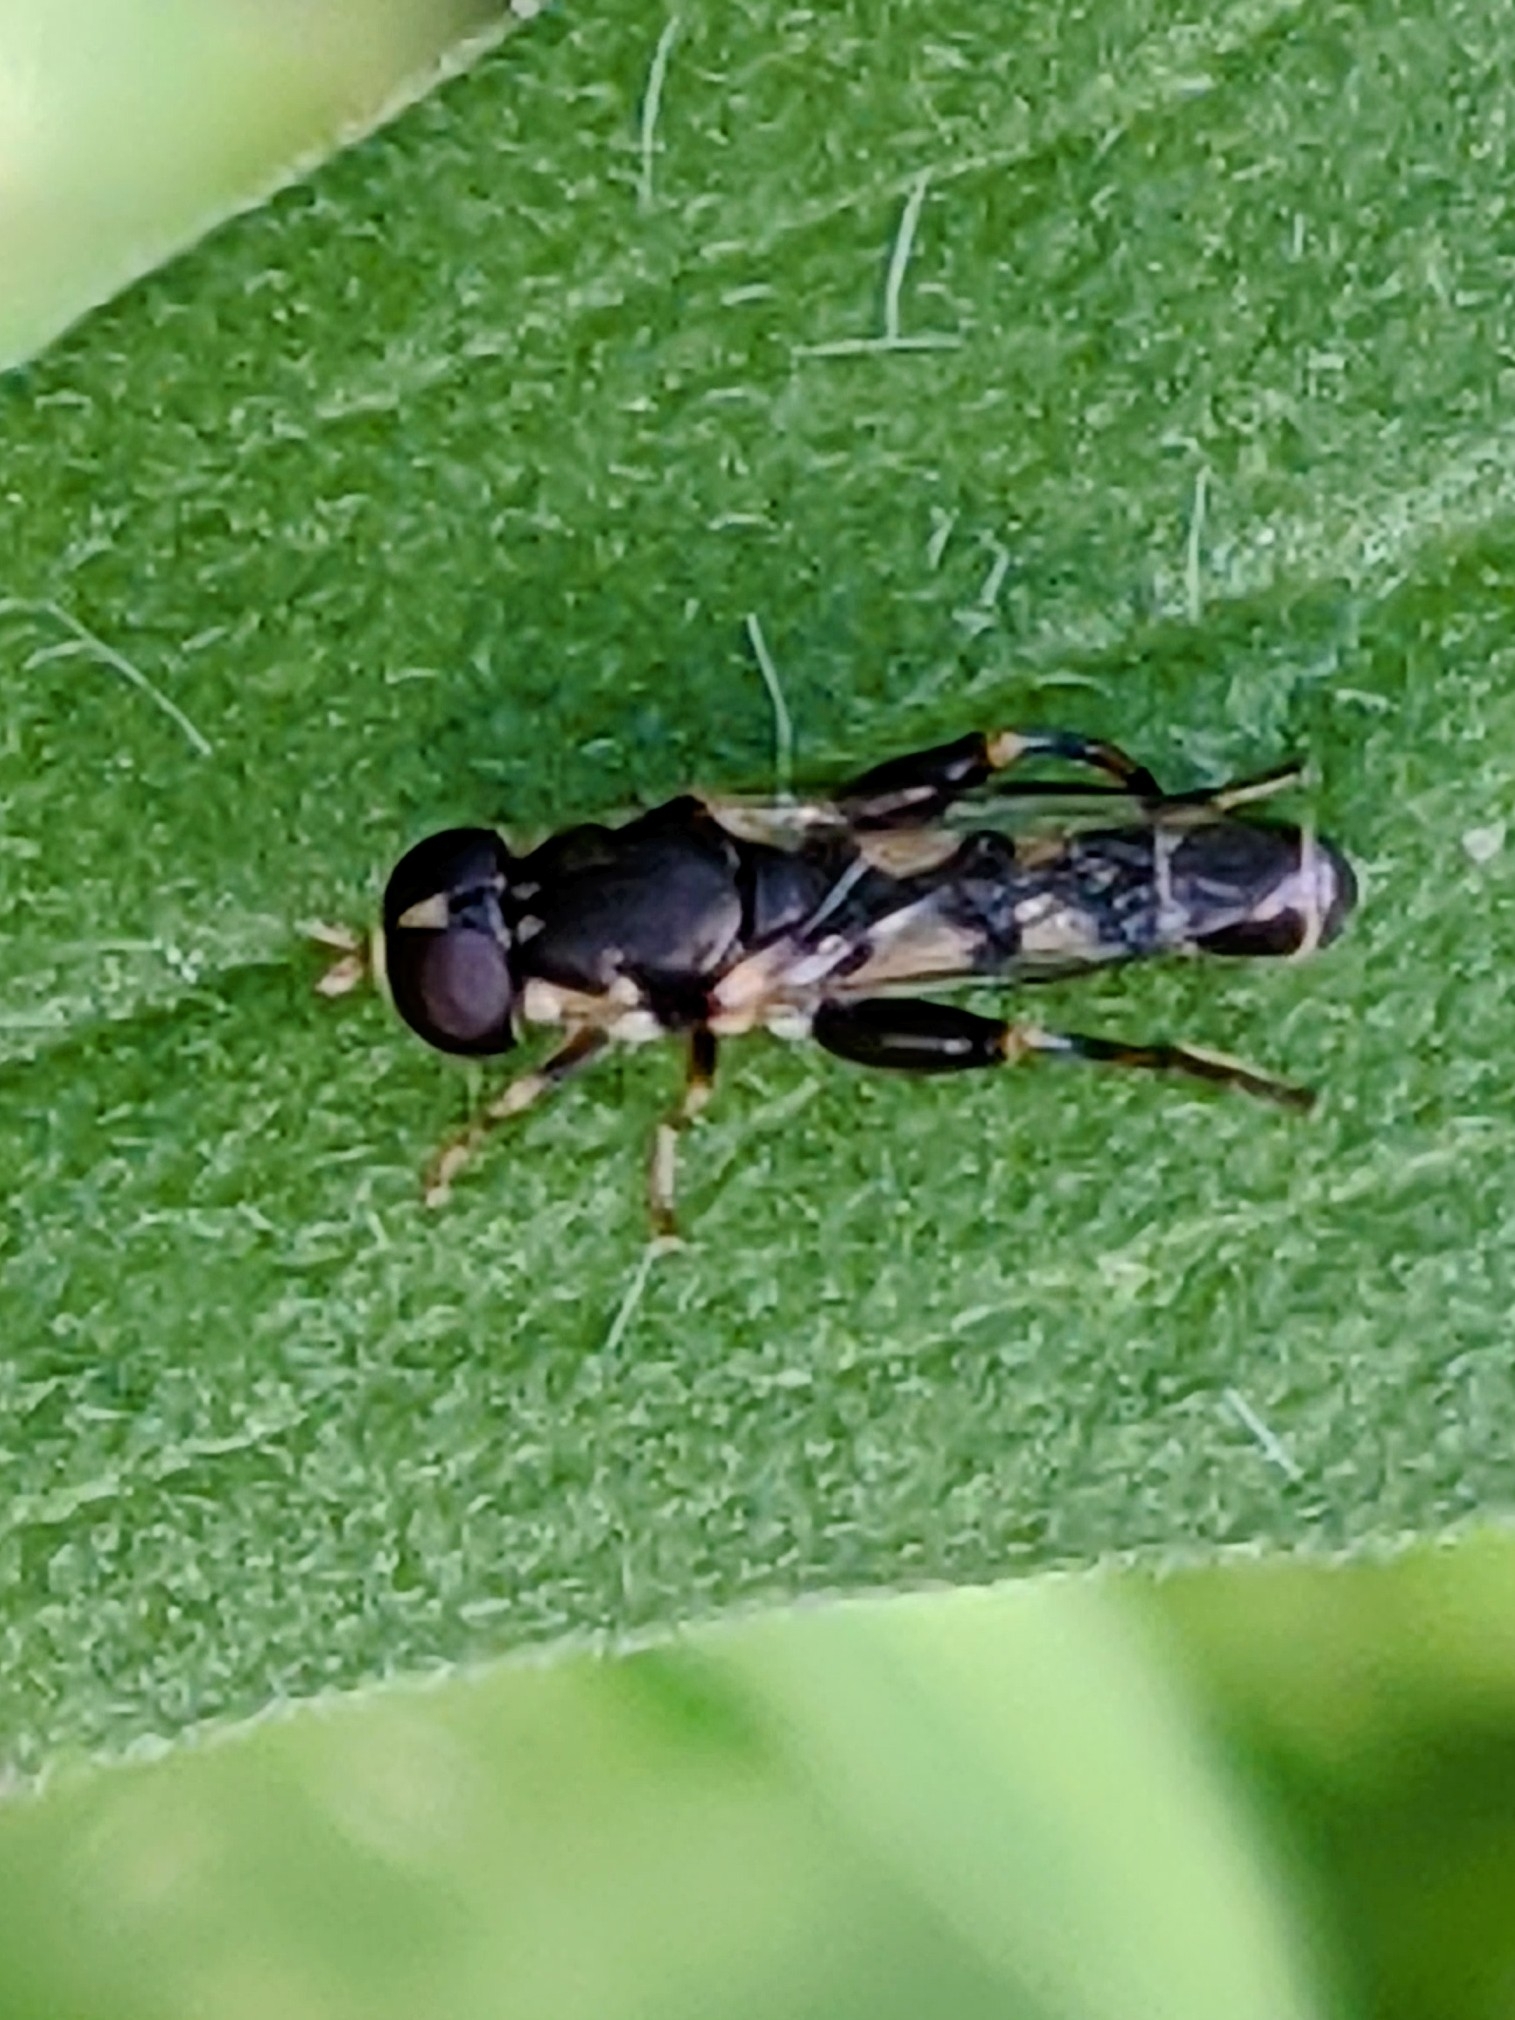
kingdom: Animalia
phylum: Arthropoda
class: Insecta
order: Diptera
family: Syrphidae
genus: Syritta
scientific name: Syritta pipiens
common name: Hover fly
